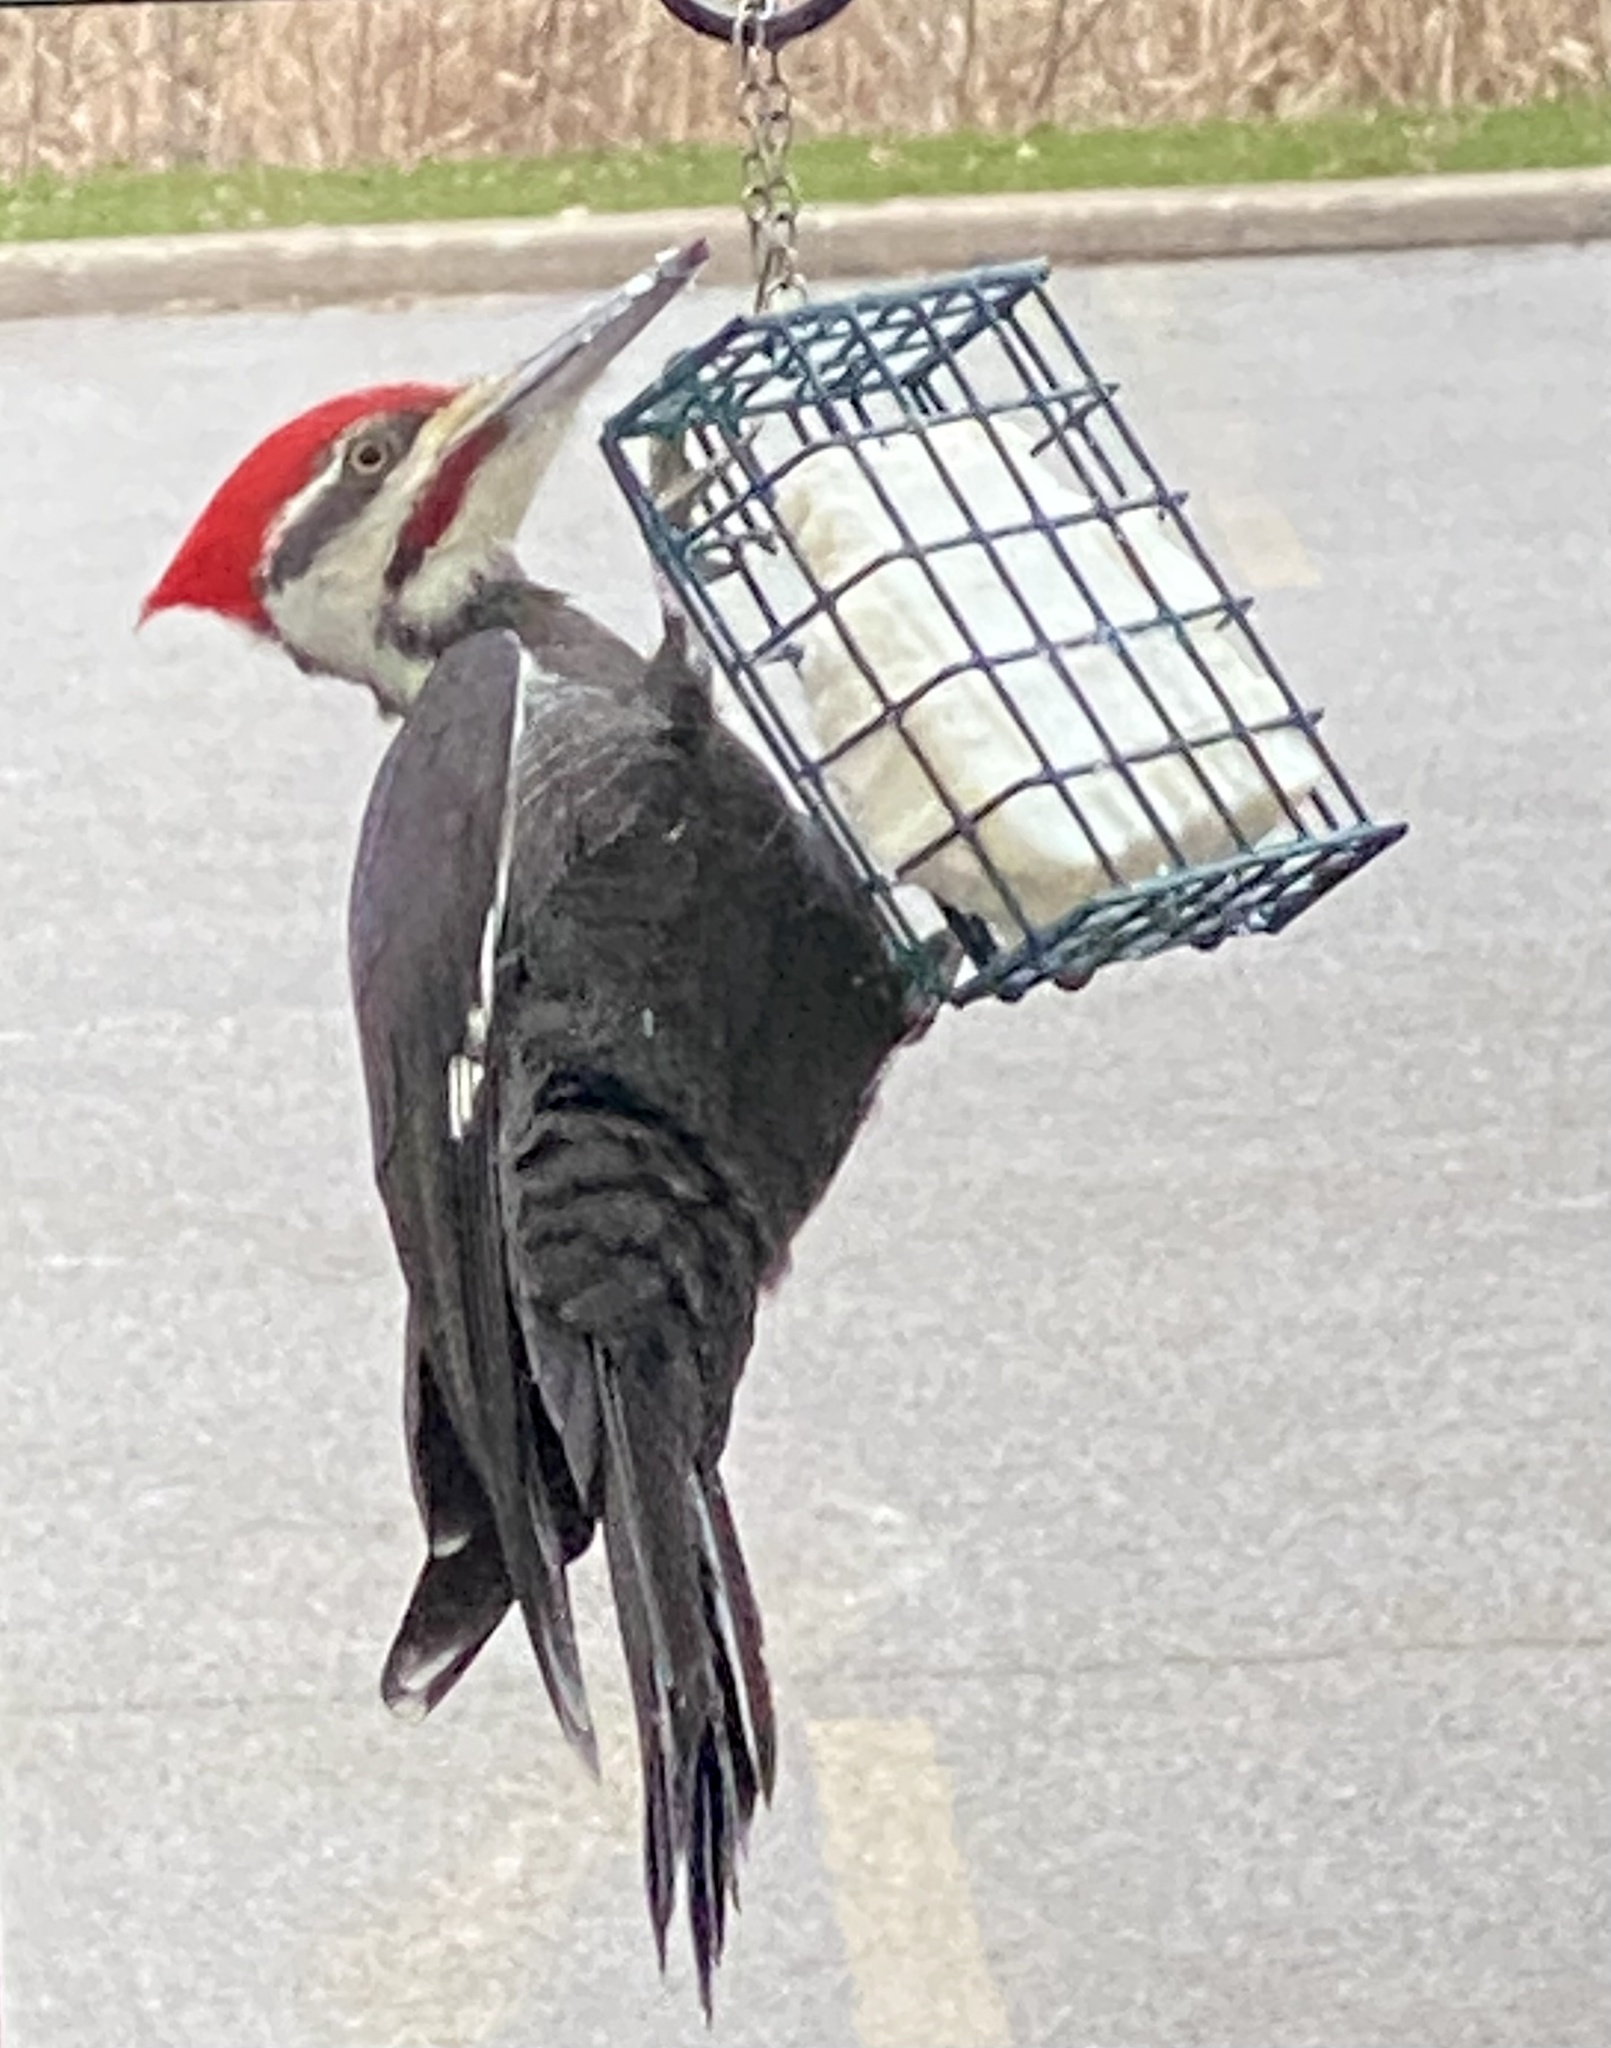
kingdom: Animalia
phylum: Chordata
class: Aves
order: Piciformes
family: Picidae
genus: Dryocopus
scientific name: Dryocopus pileatus
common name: Pileated woodpecker
